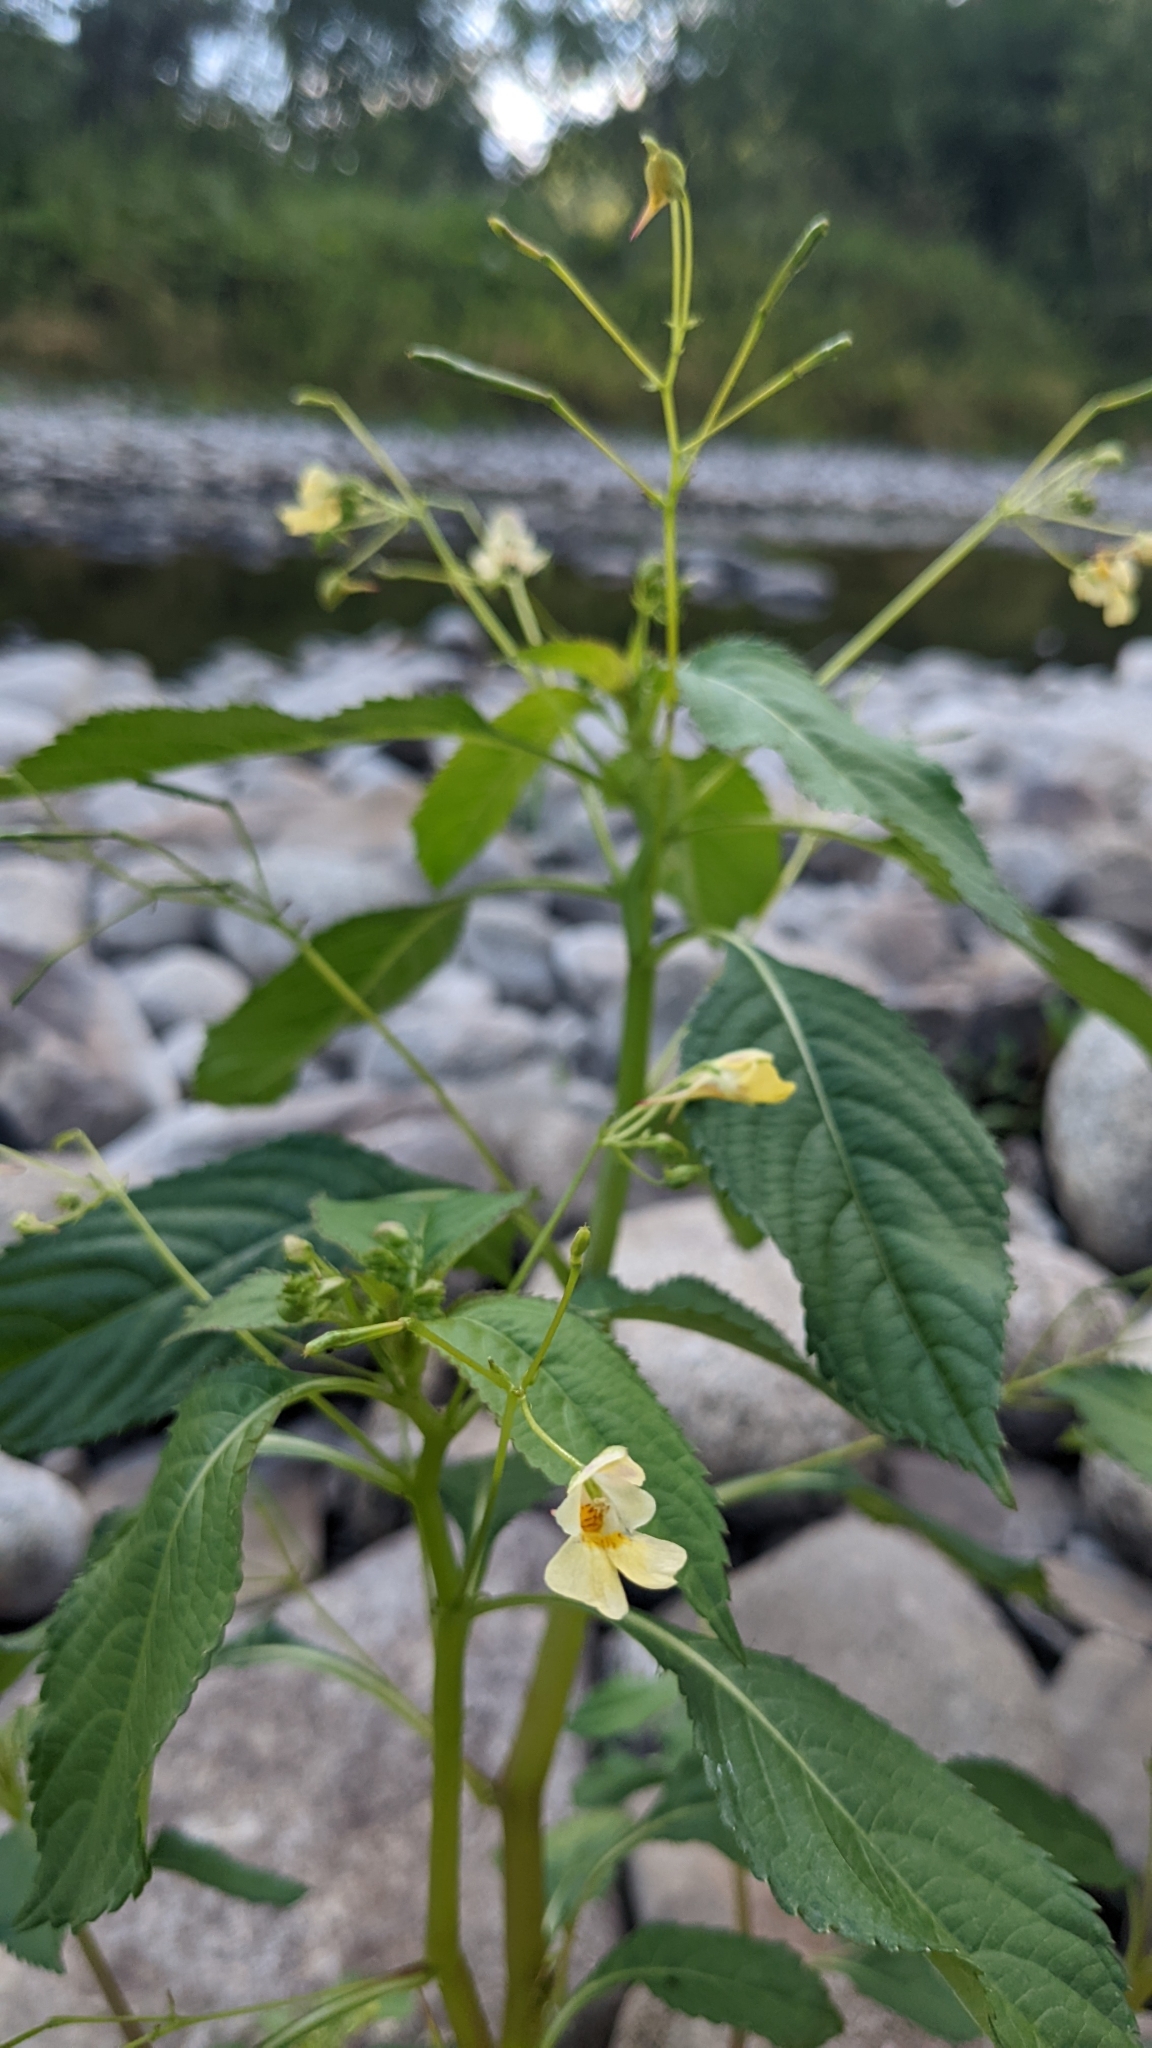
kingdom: Plantae
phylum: Tracheophyta
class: Magnoliopsida
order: Ericales
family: Balsaminaceae
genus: Impatiens
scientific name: Impatiens parviflora
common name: Small balsam
